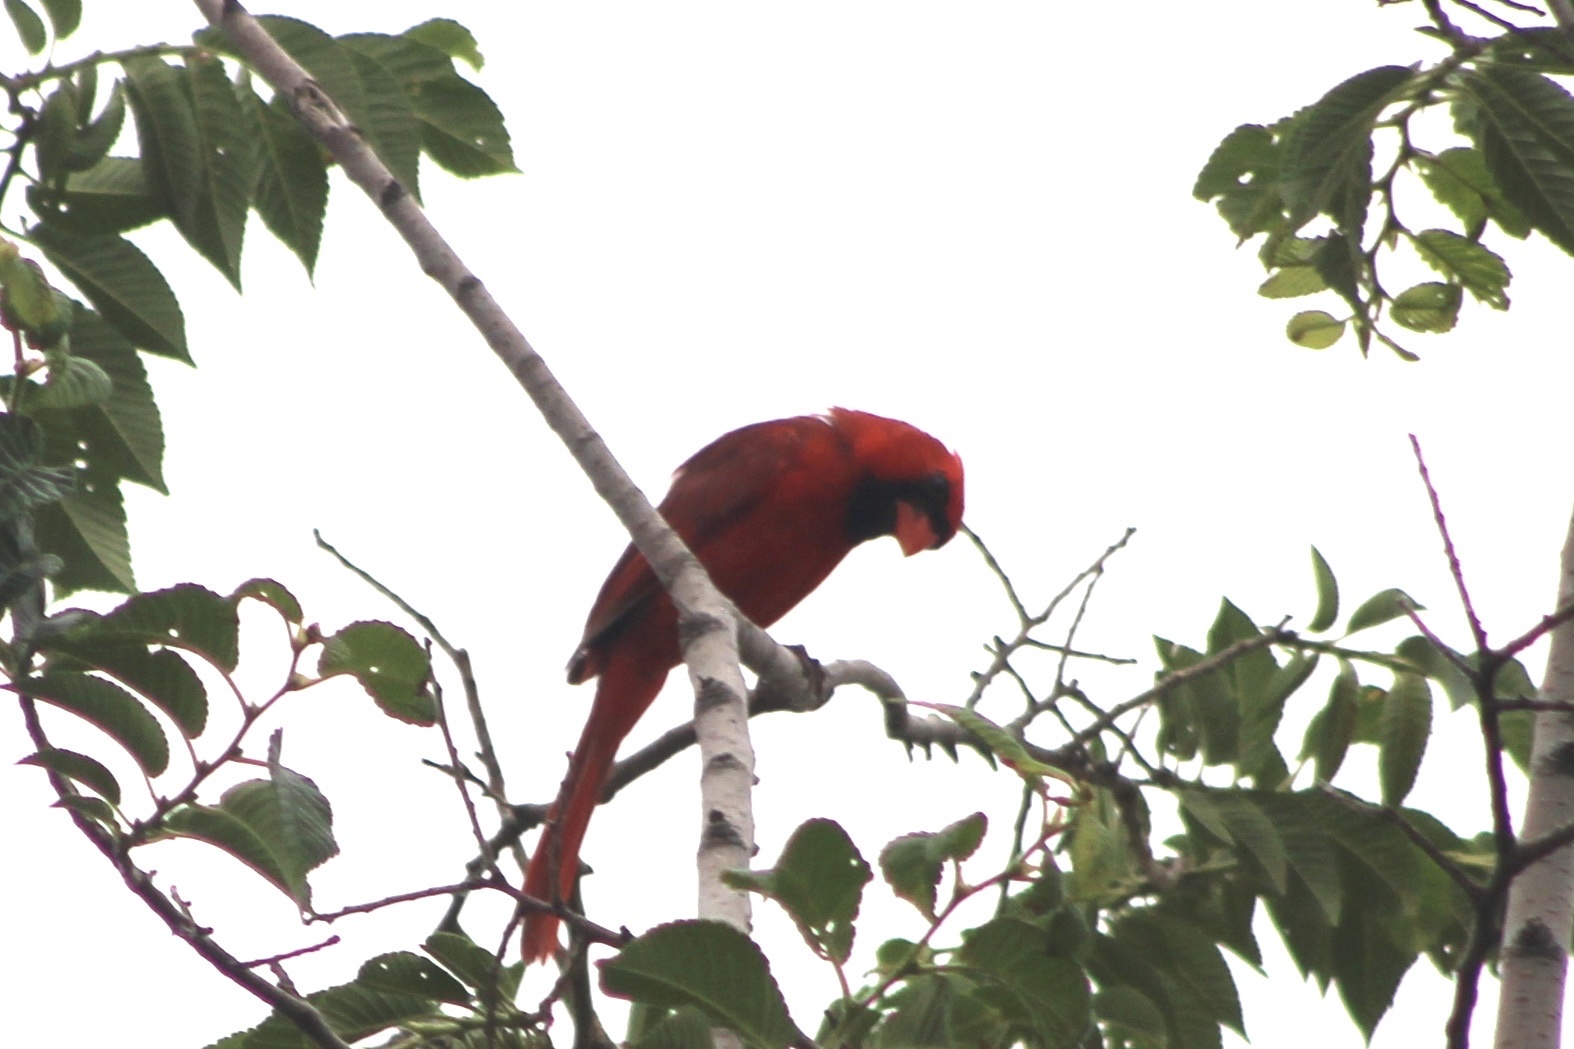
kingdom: Animalia
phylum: Chordata
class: Aves
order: Passeriformes
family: Cardinalidae
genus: Cardinalis
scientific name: Cardinalis cardinalis
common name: Northern cardinal
